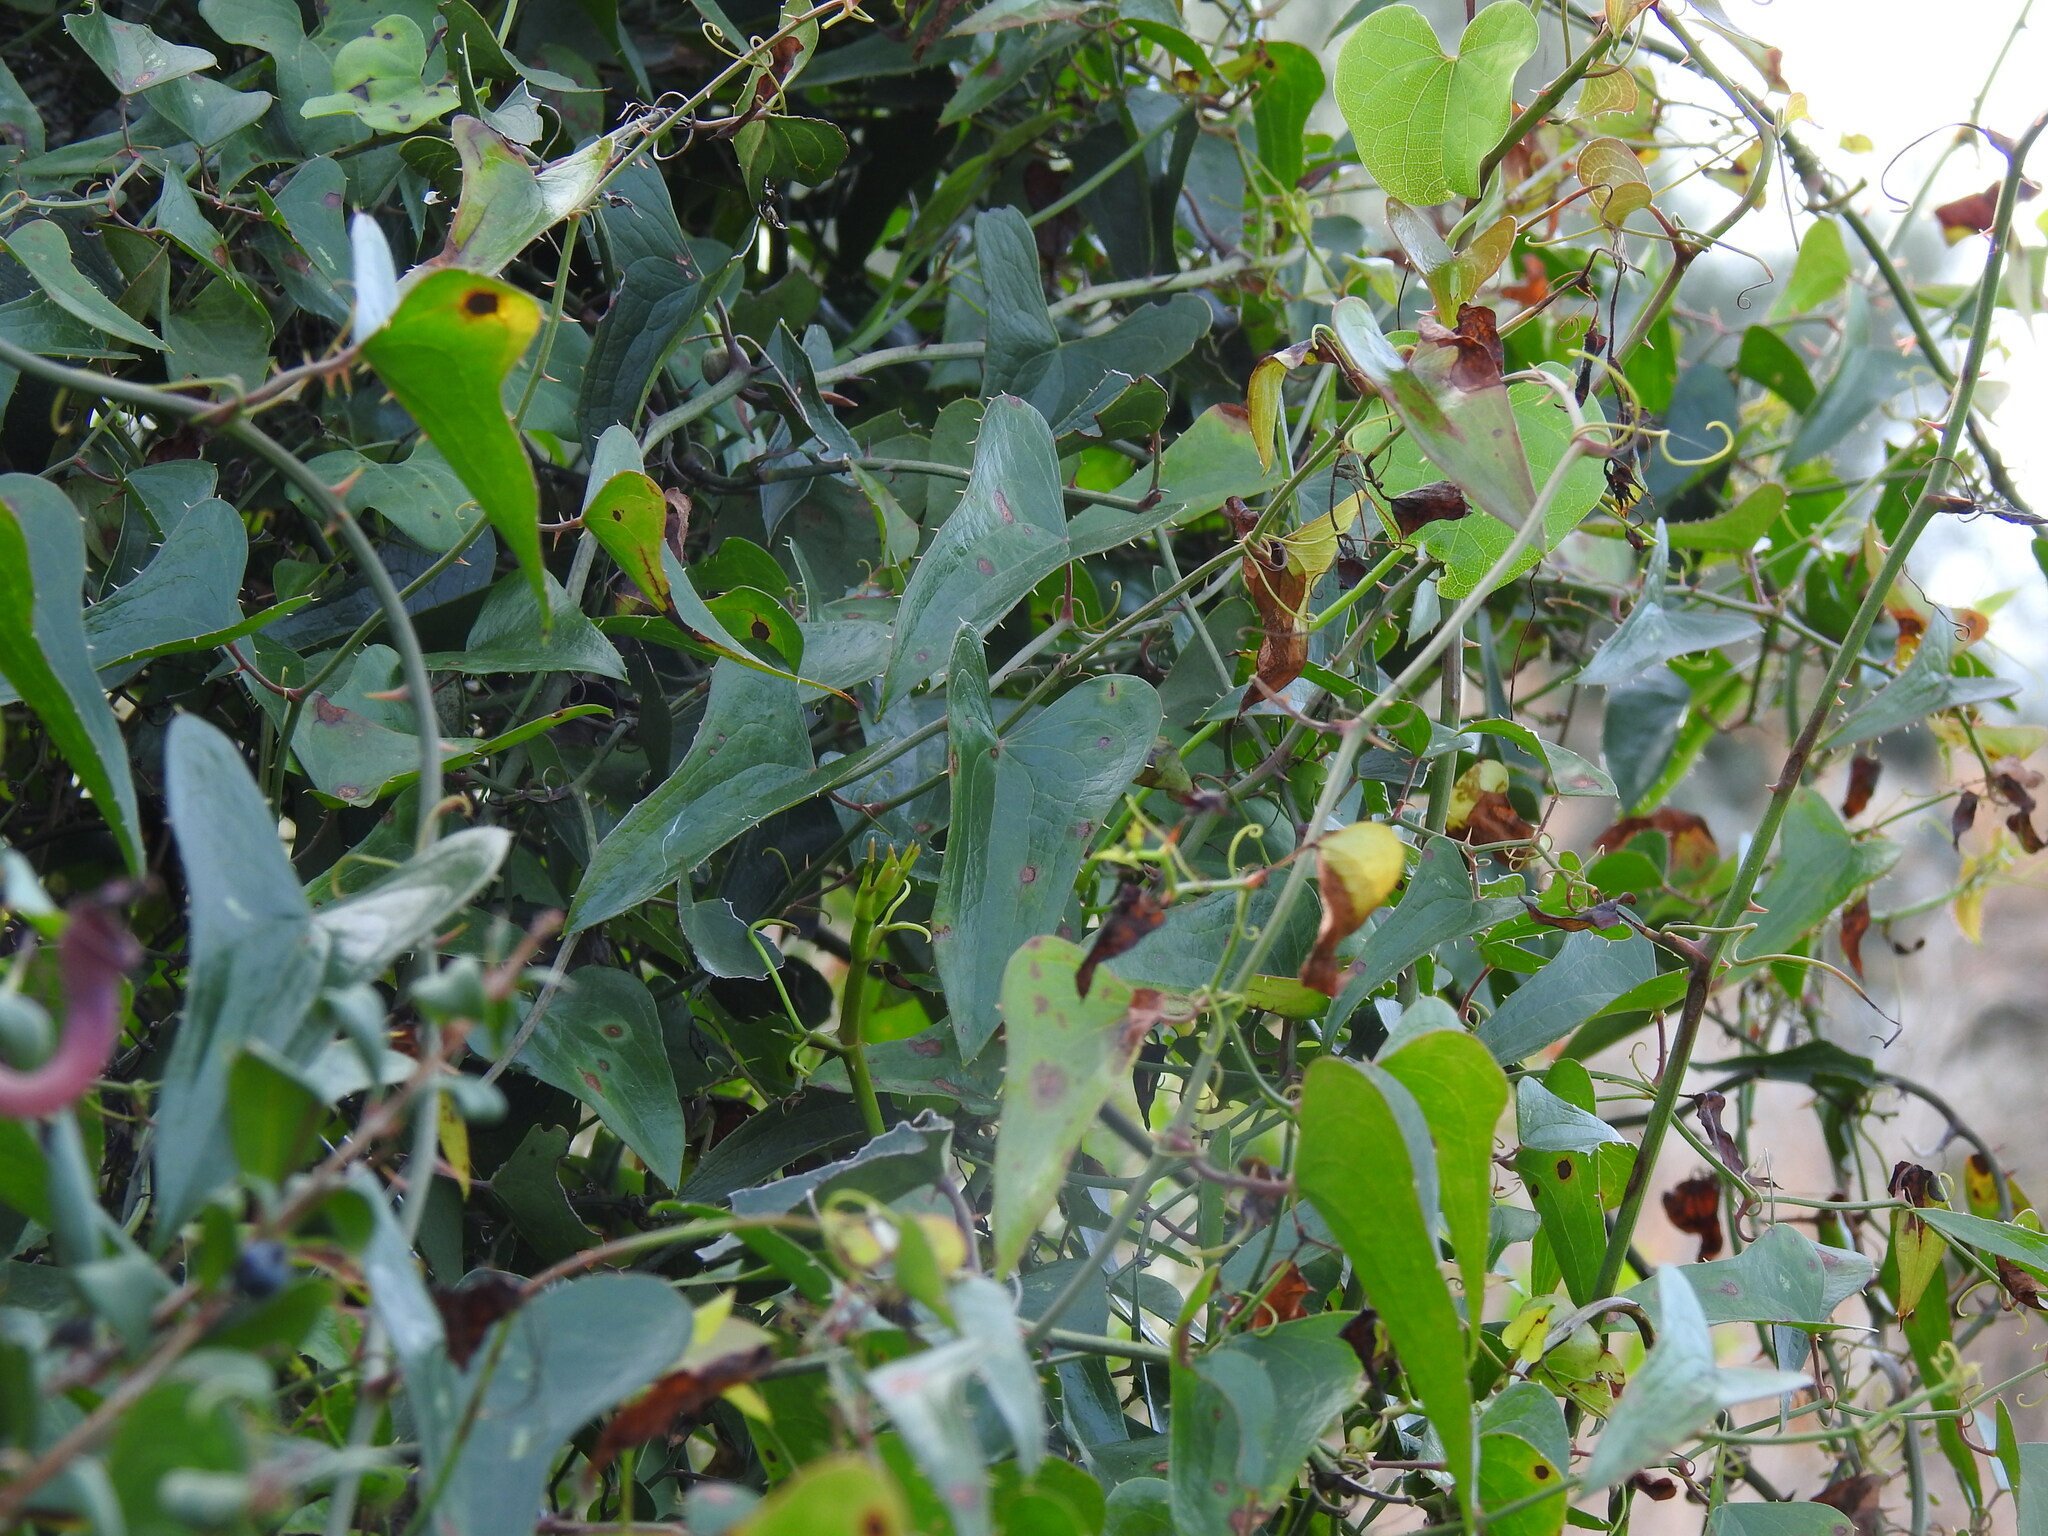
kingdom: Plantae
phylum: Tracheophyta
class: Liliopsida
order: Liliales
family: Smilacaceae
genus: Smilax
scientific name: Smilax aspera
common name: Common smilax
